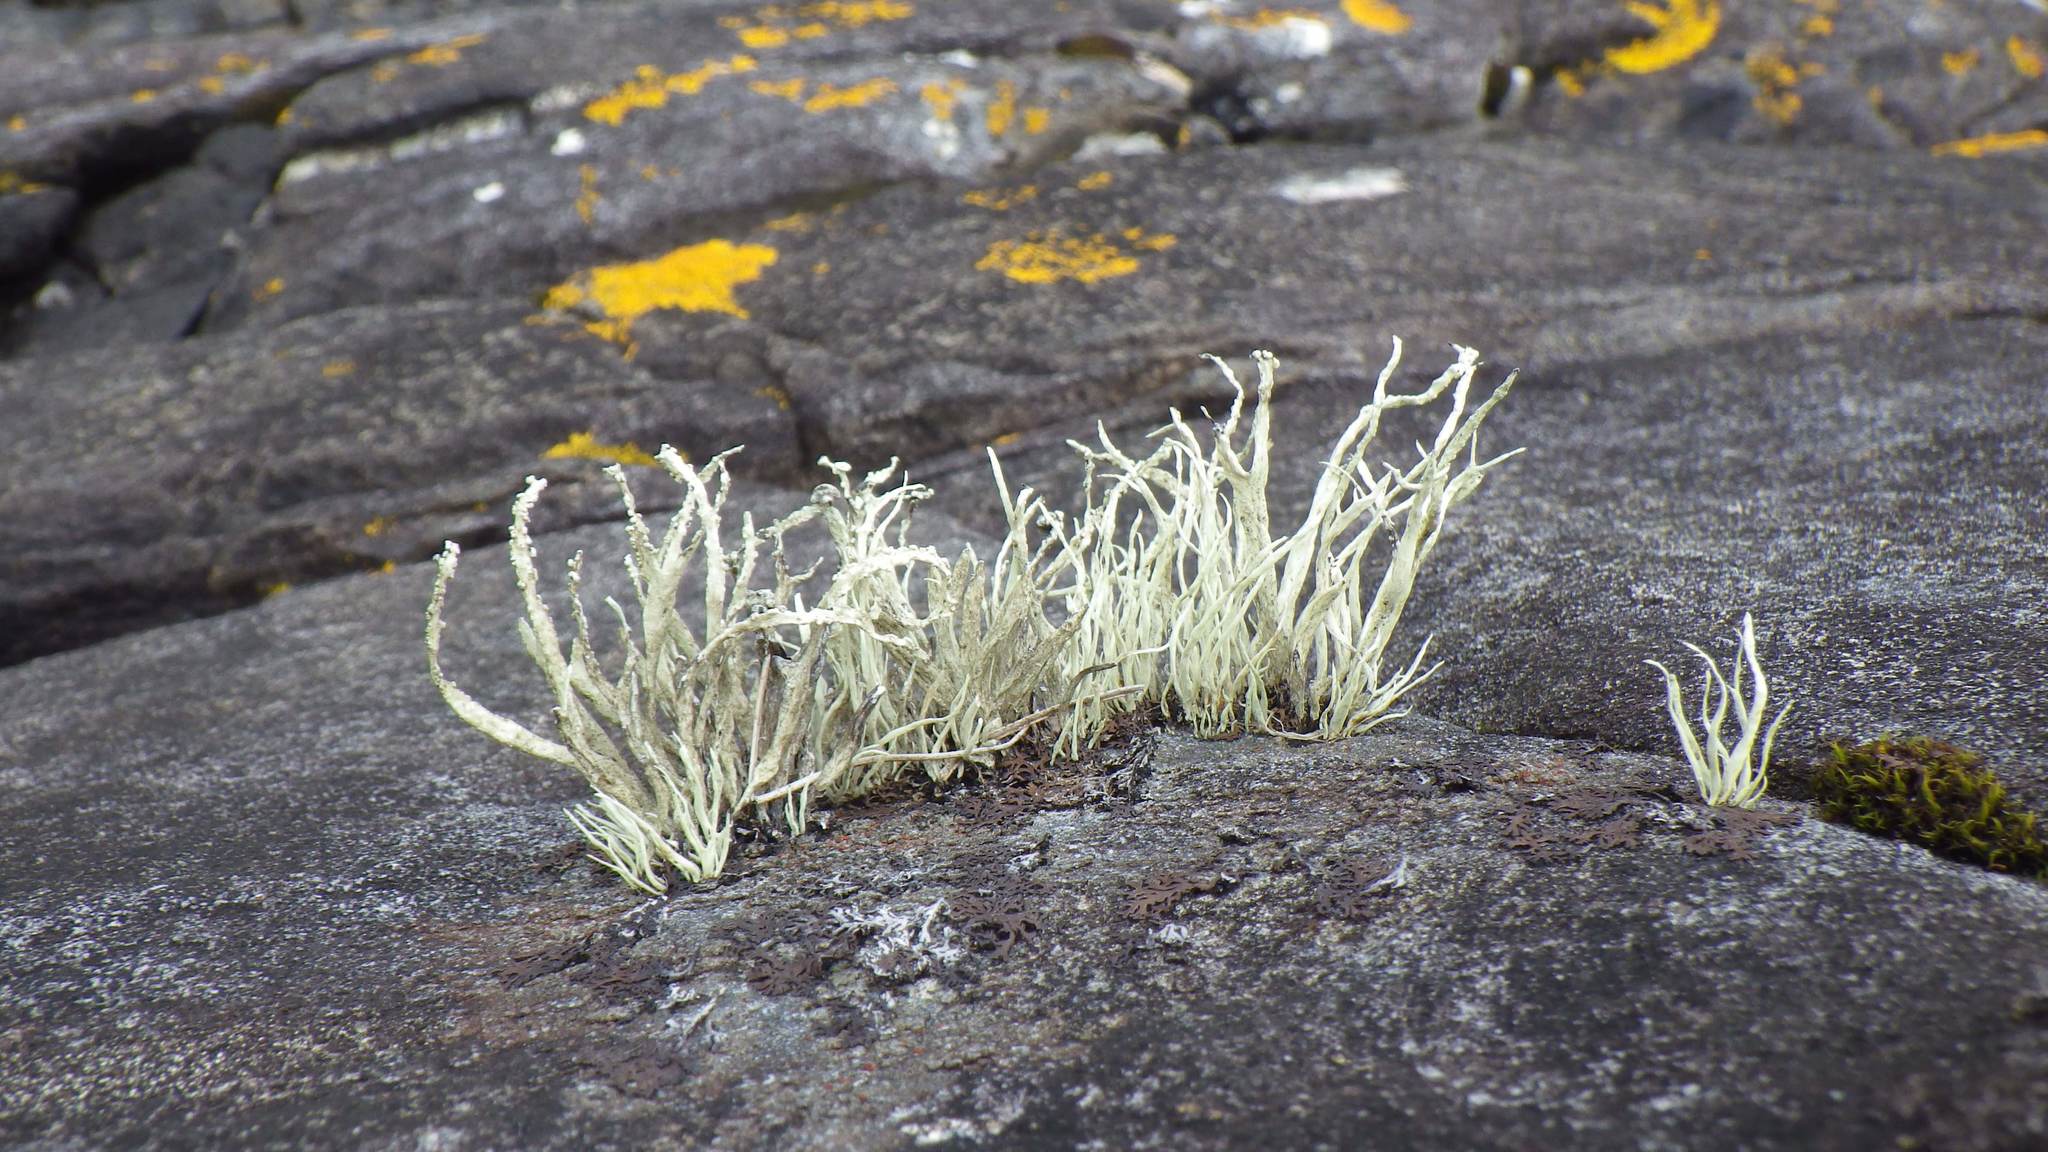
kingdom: Fungi
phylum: Ascomycota
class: Lecanoromycetes
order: Lecanorales
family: Ramalinaceae
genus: Ramalina
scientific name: Ramalina cuspidata
